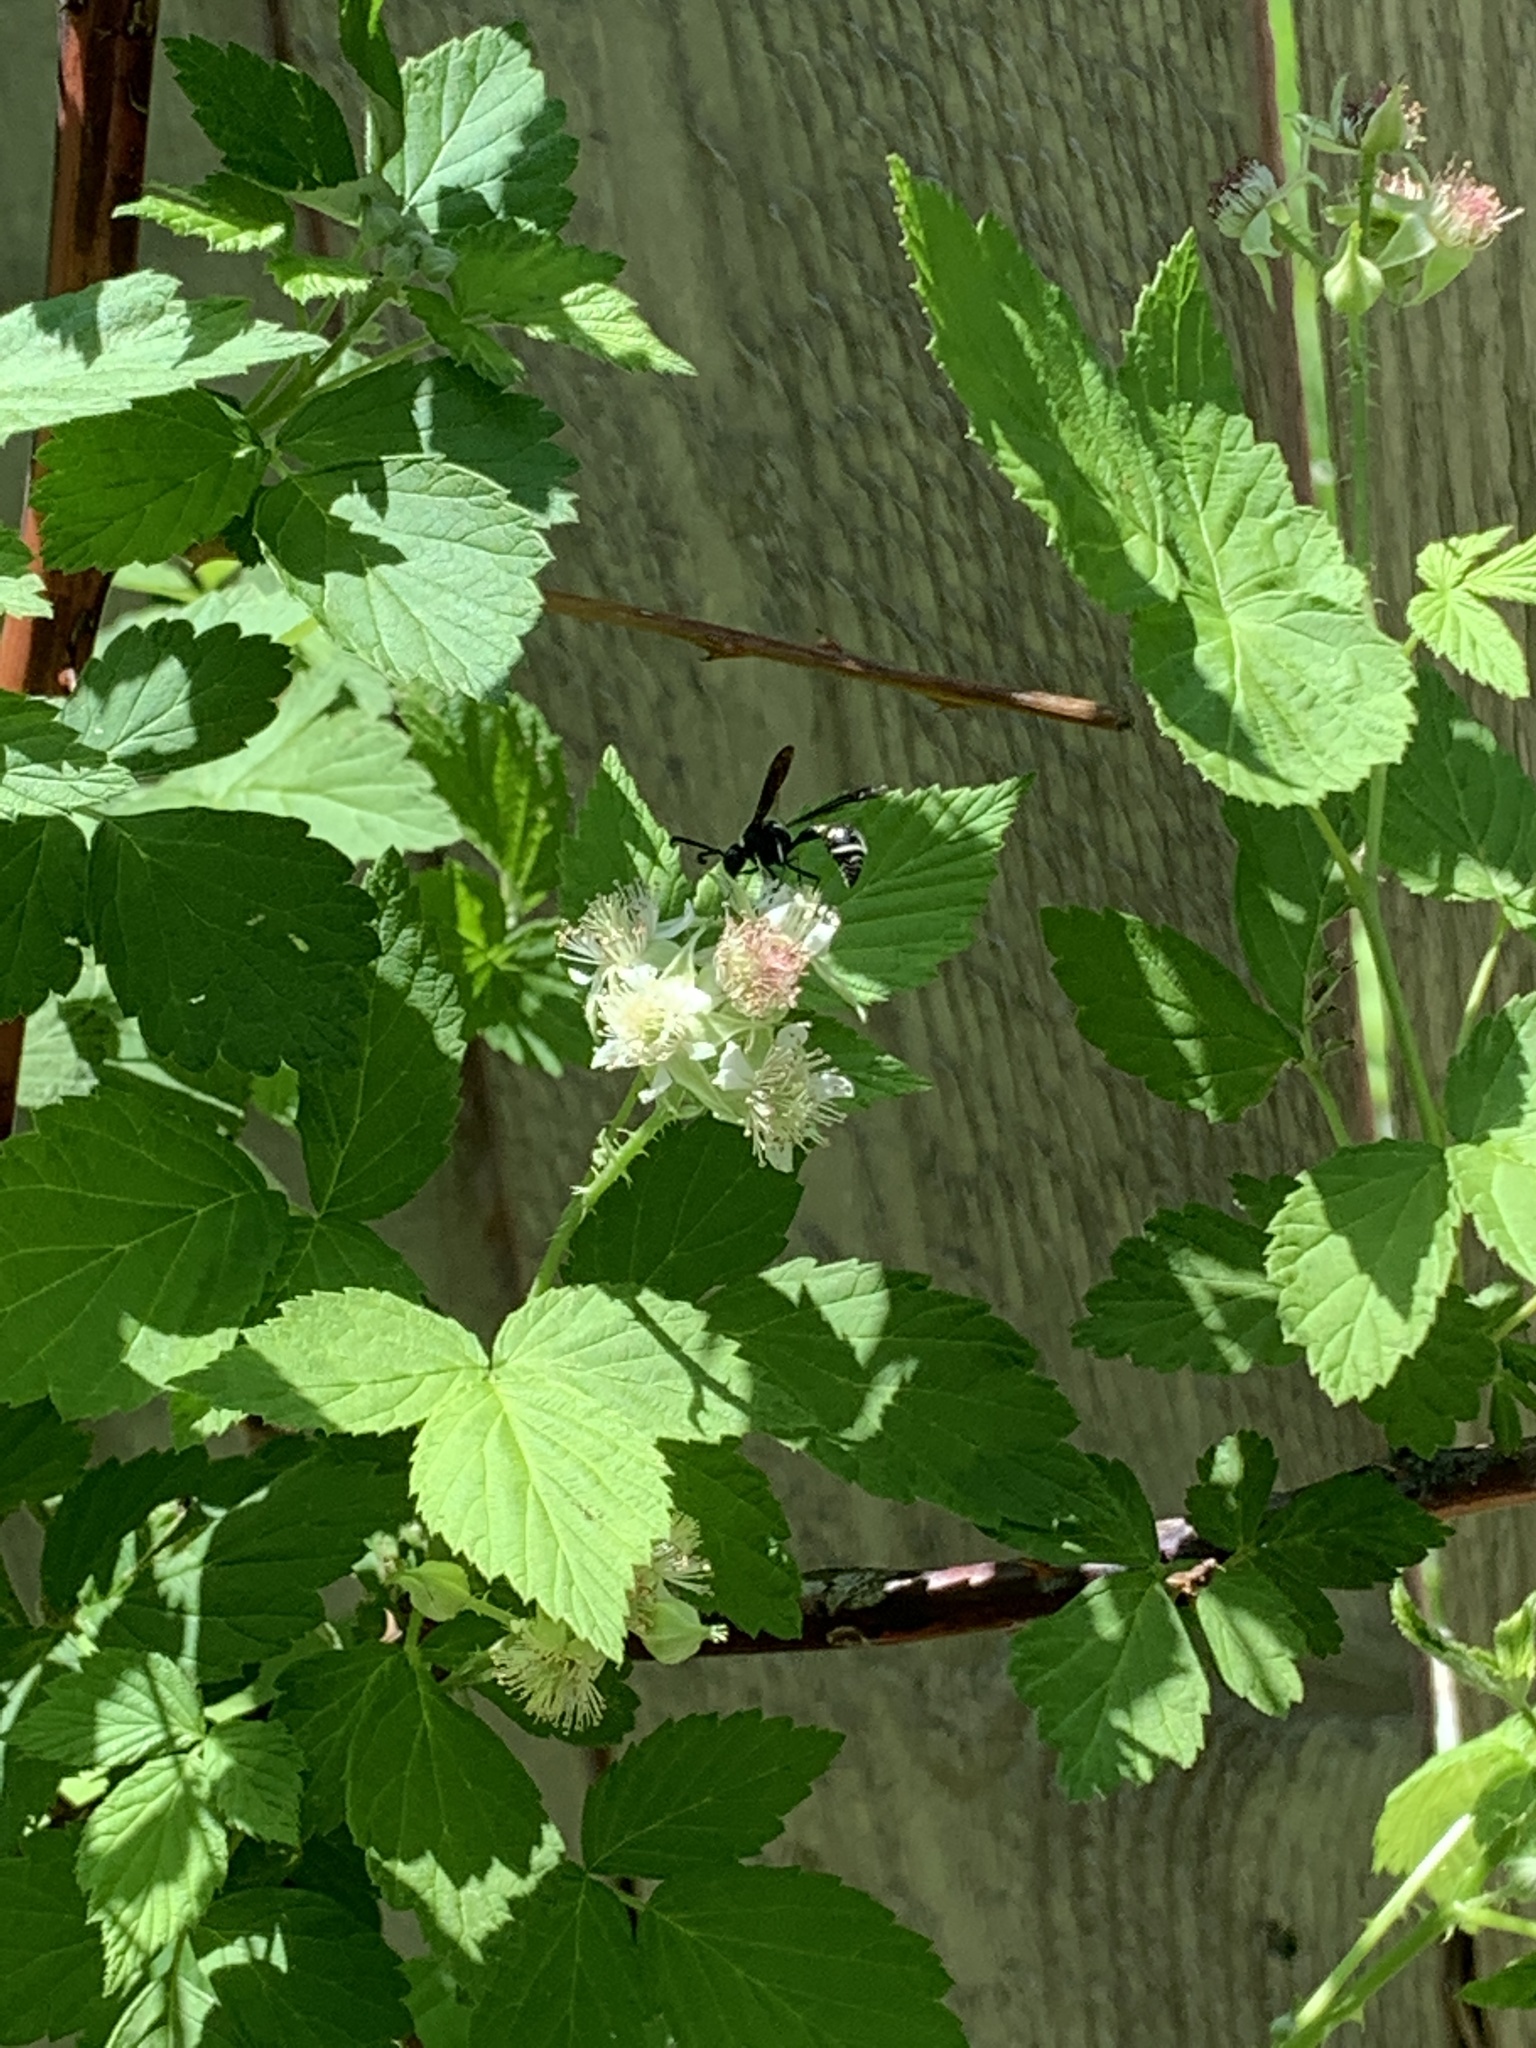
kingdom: Animalia
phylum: Arthropoda
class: Insecta
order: Hymenoptera
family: Vespidae
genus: Eumenes
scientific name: Eumenes fraternus
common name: Fraternal potter wasp
